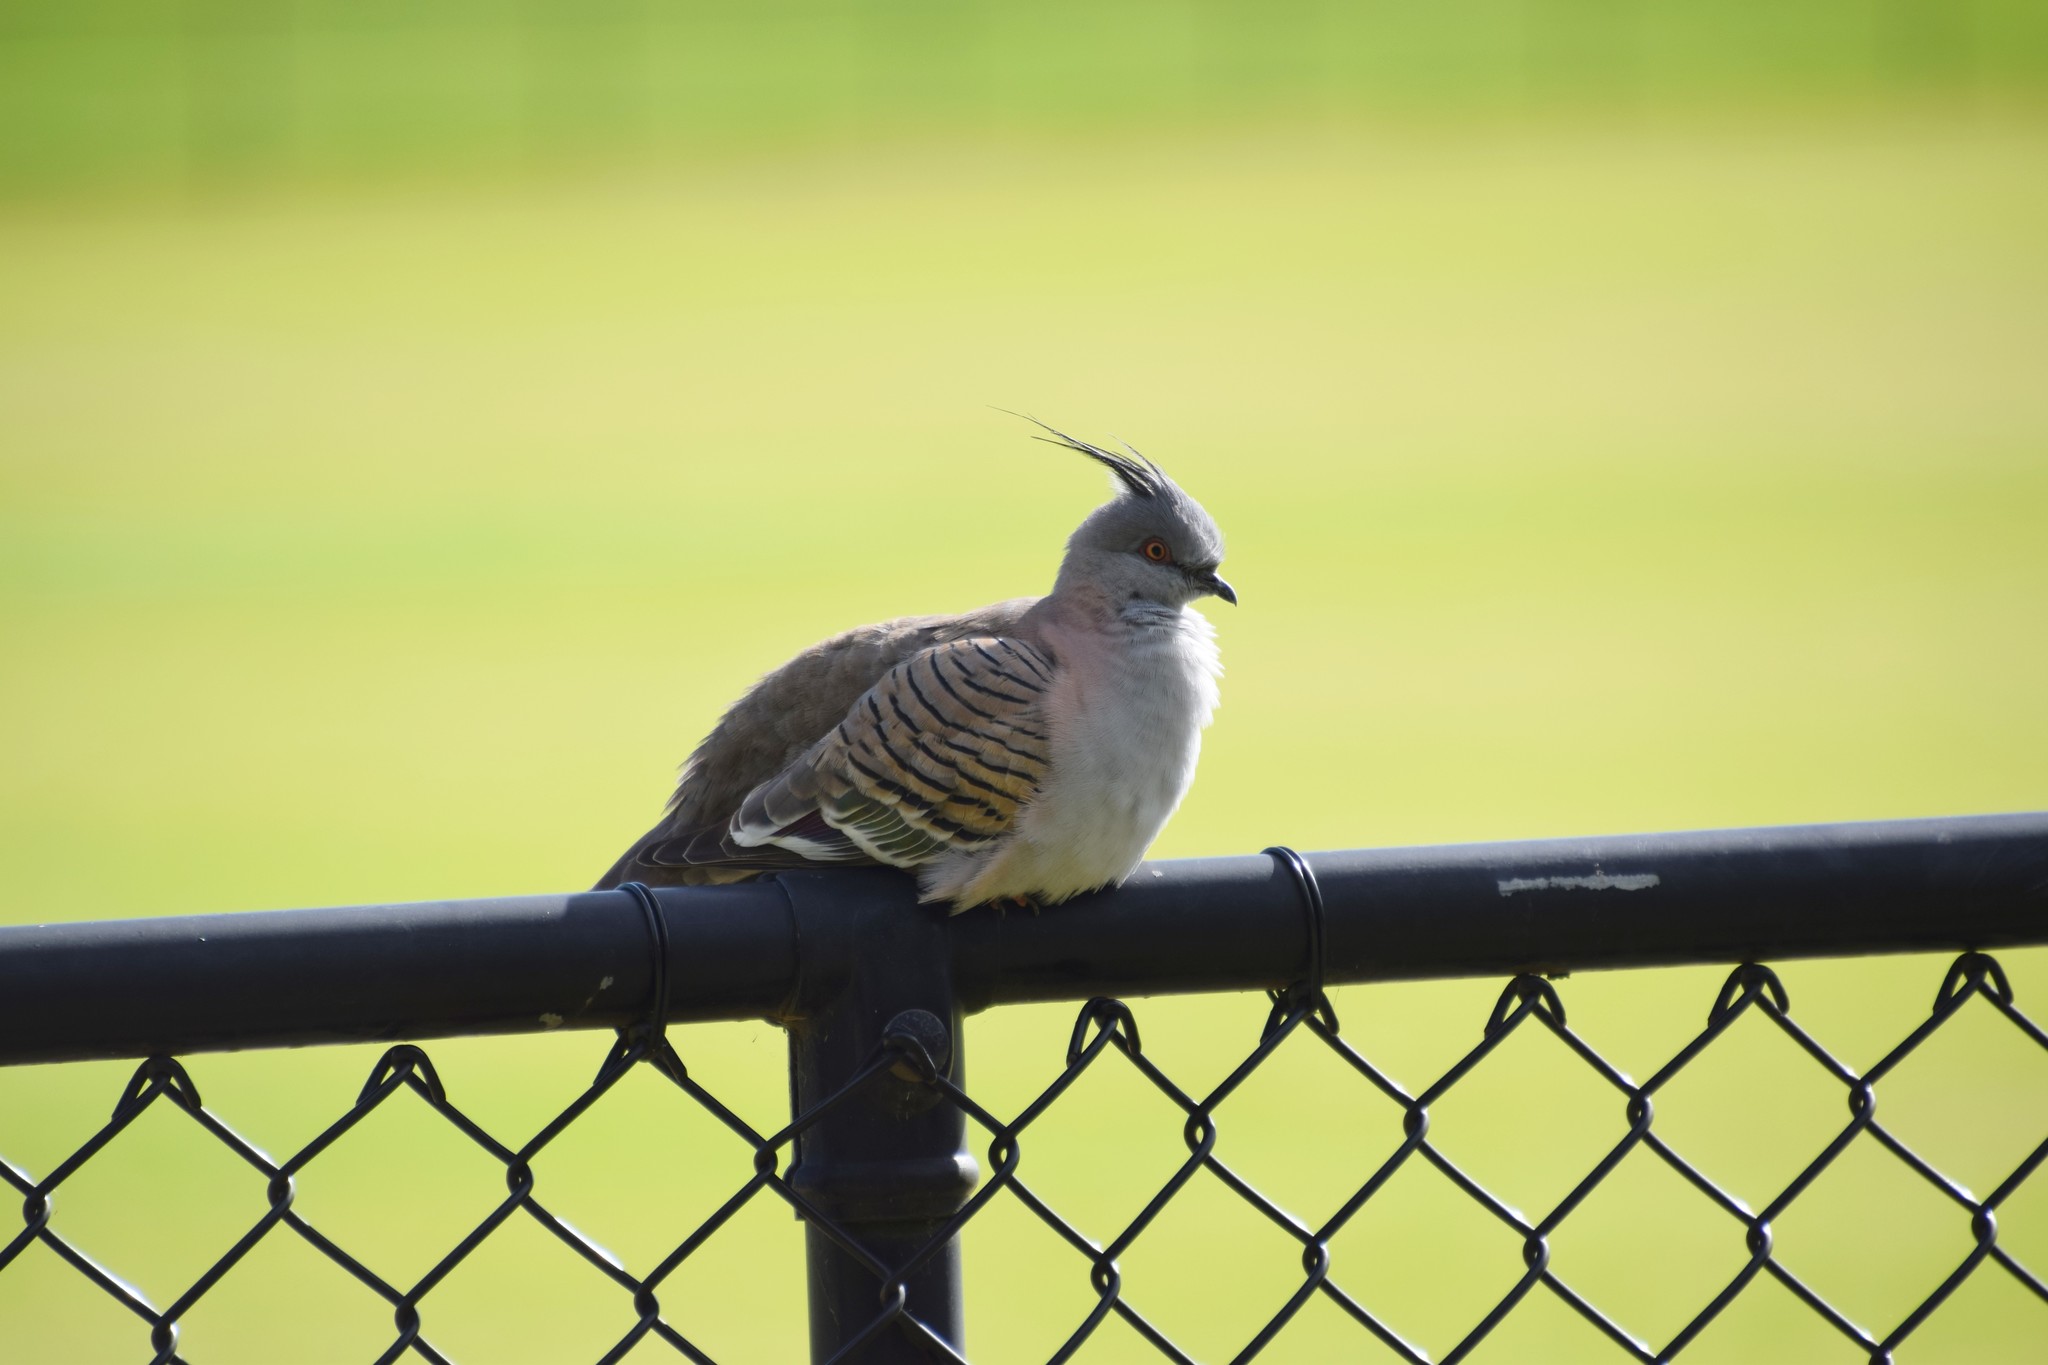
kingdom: Animalia
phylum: Chordata
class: Aves
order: Columbiformes
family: Columbidae
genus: Ocyphaps
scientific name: Ocyphaps lophotes
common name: Crested pigeon
